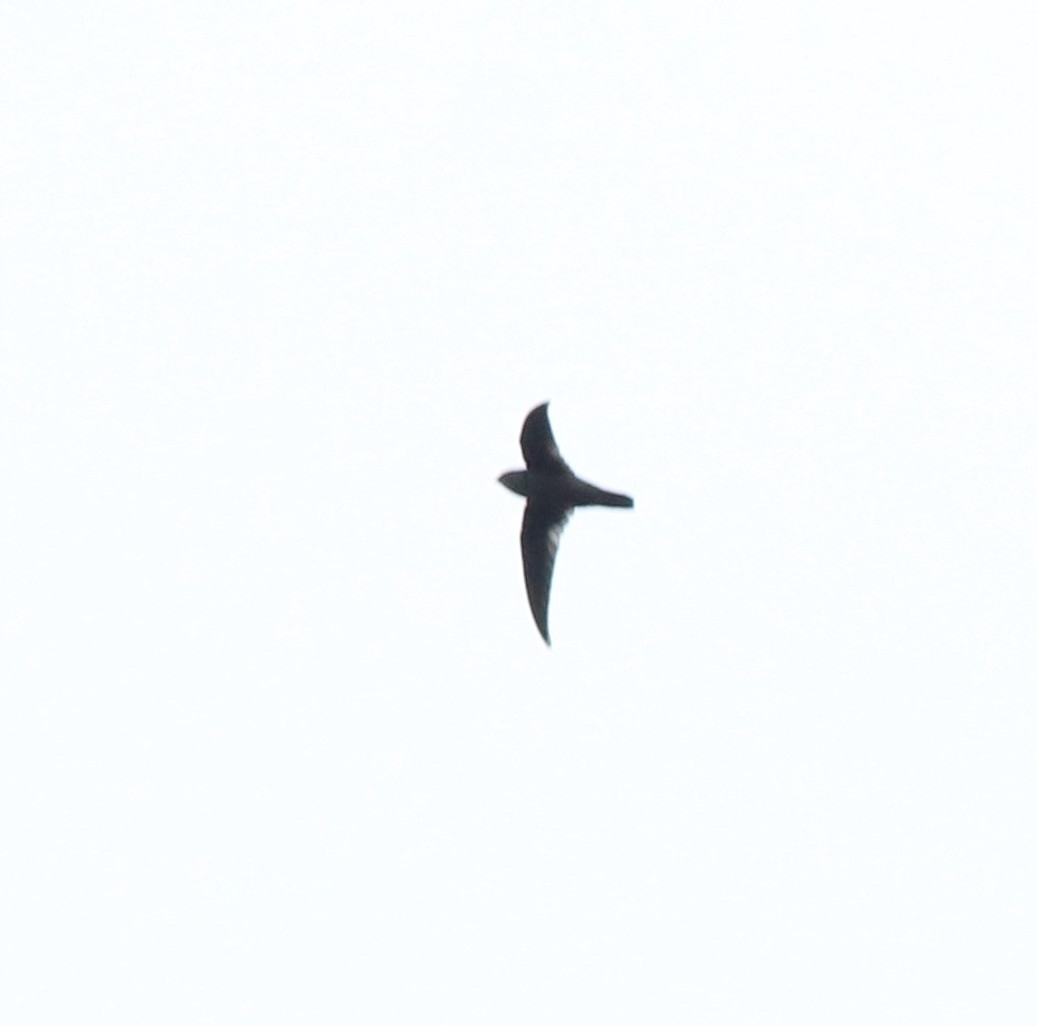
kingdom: Animalia
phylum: Chordata
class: Aves
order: Apodiformes
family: Apodidae
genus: Aerodramus
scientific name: Aerodramus unicolor
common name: Indian swiftlet
